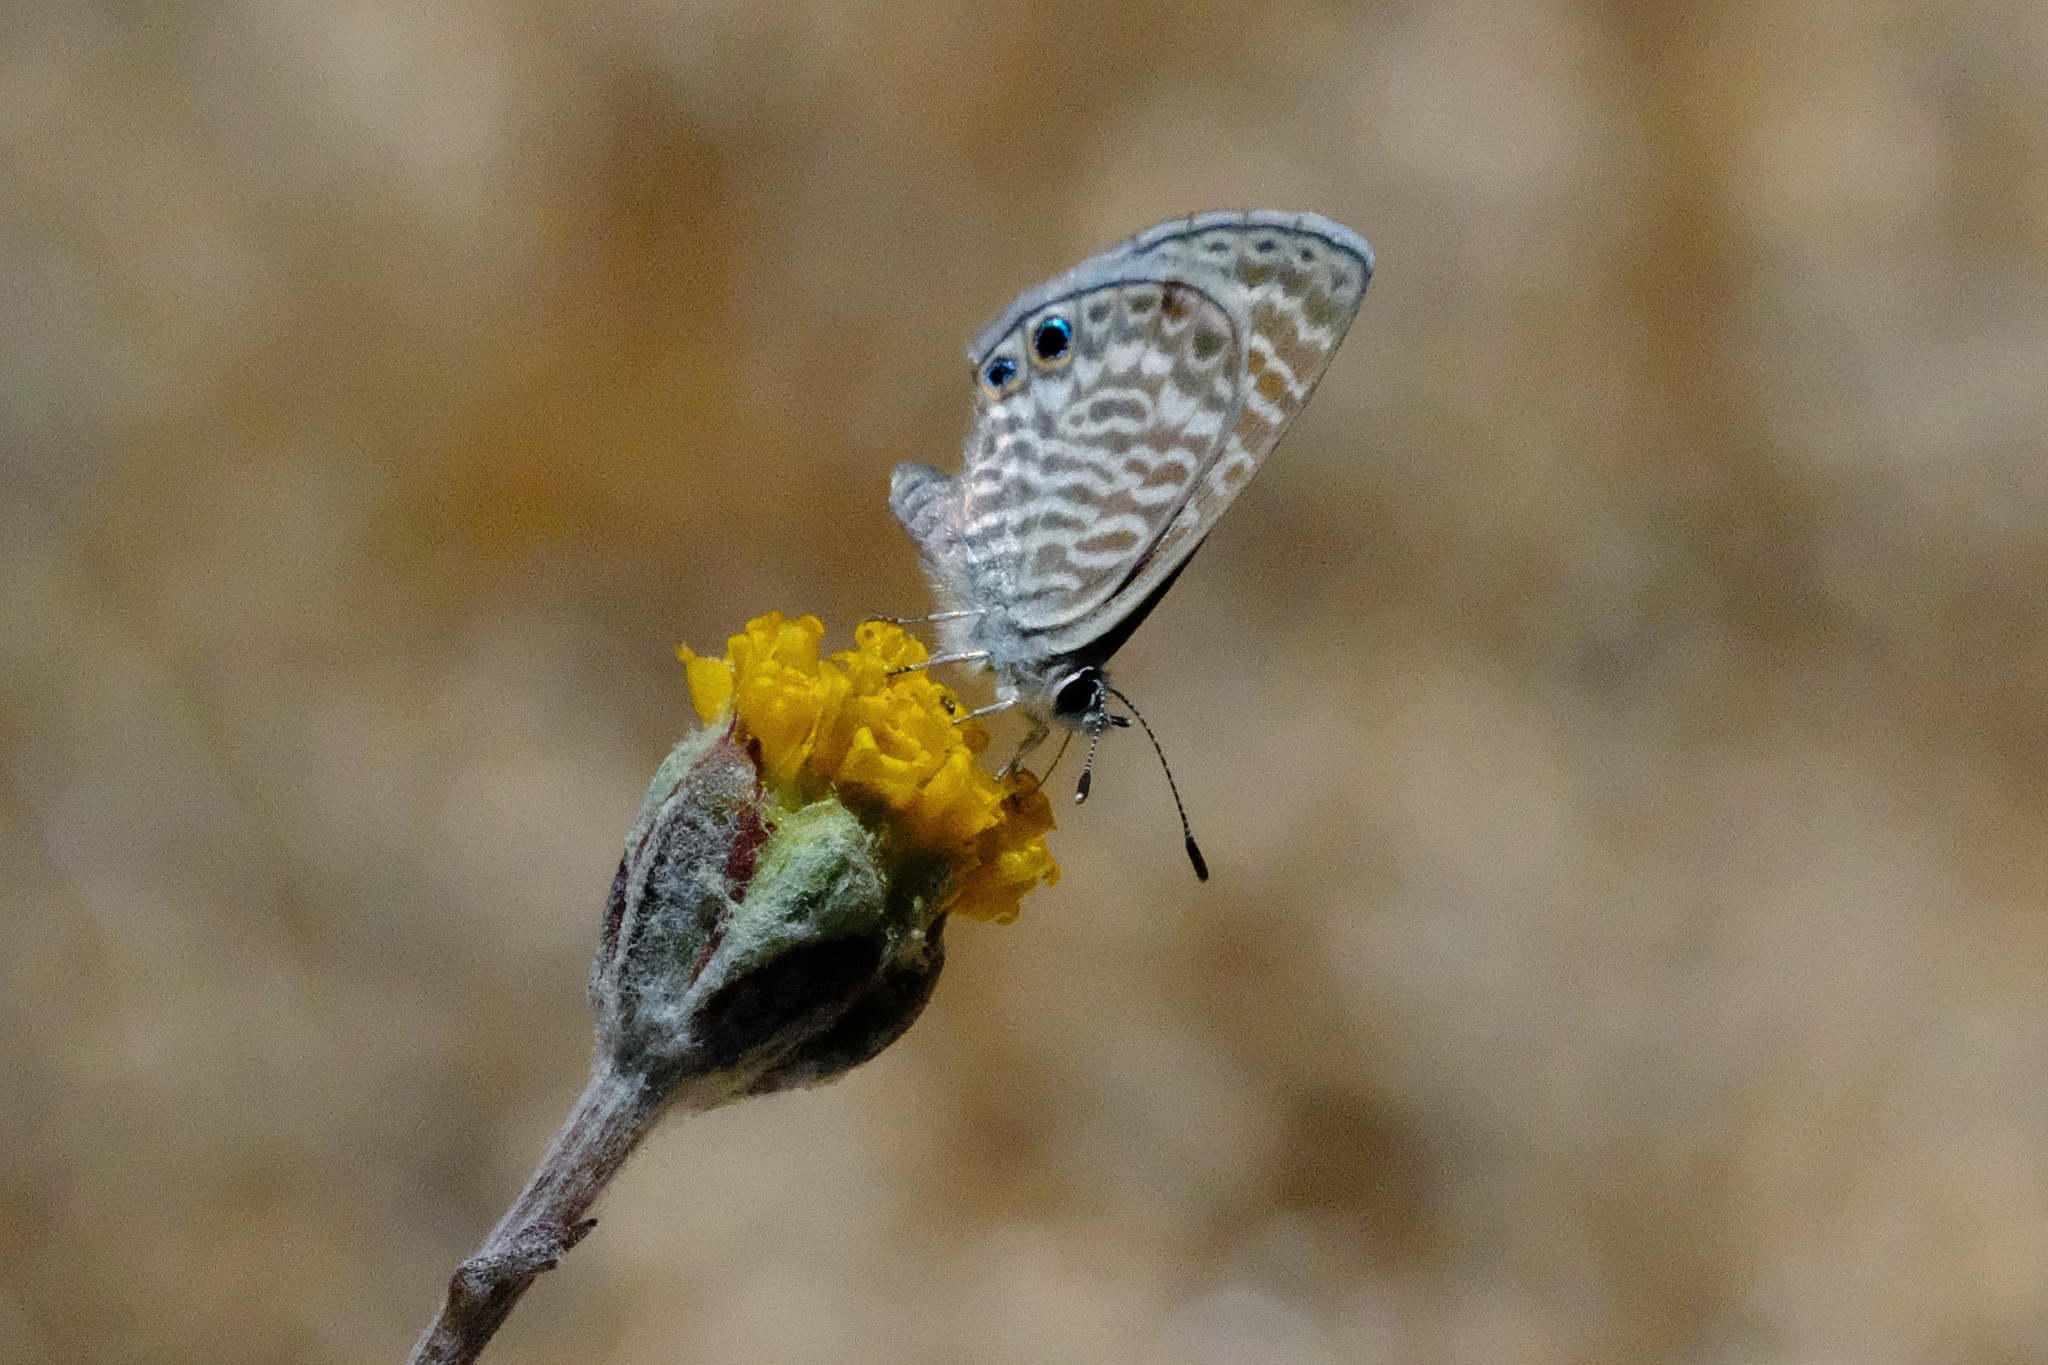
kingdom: Animalia
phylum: Arthropoda
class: Insecta
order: Lepidoptera
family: Lycaenidae
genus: Leptotes
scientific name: Leptotes marina
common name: Marine blue
